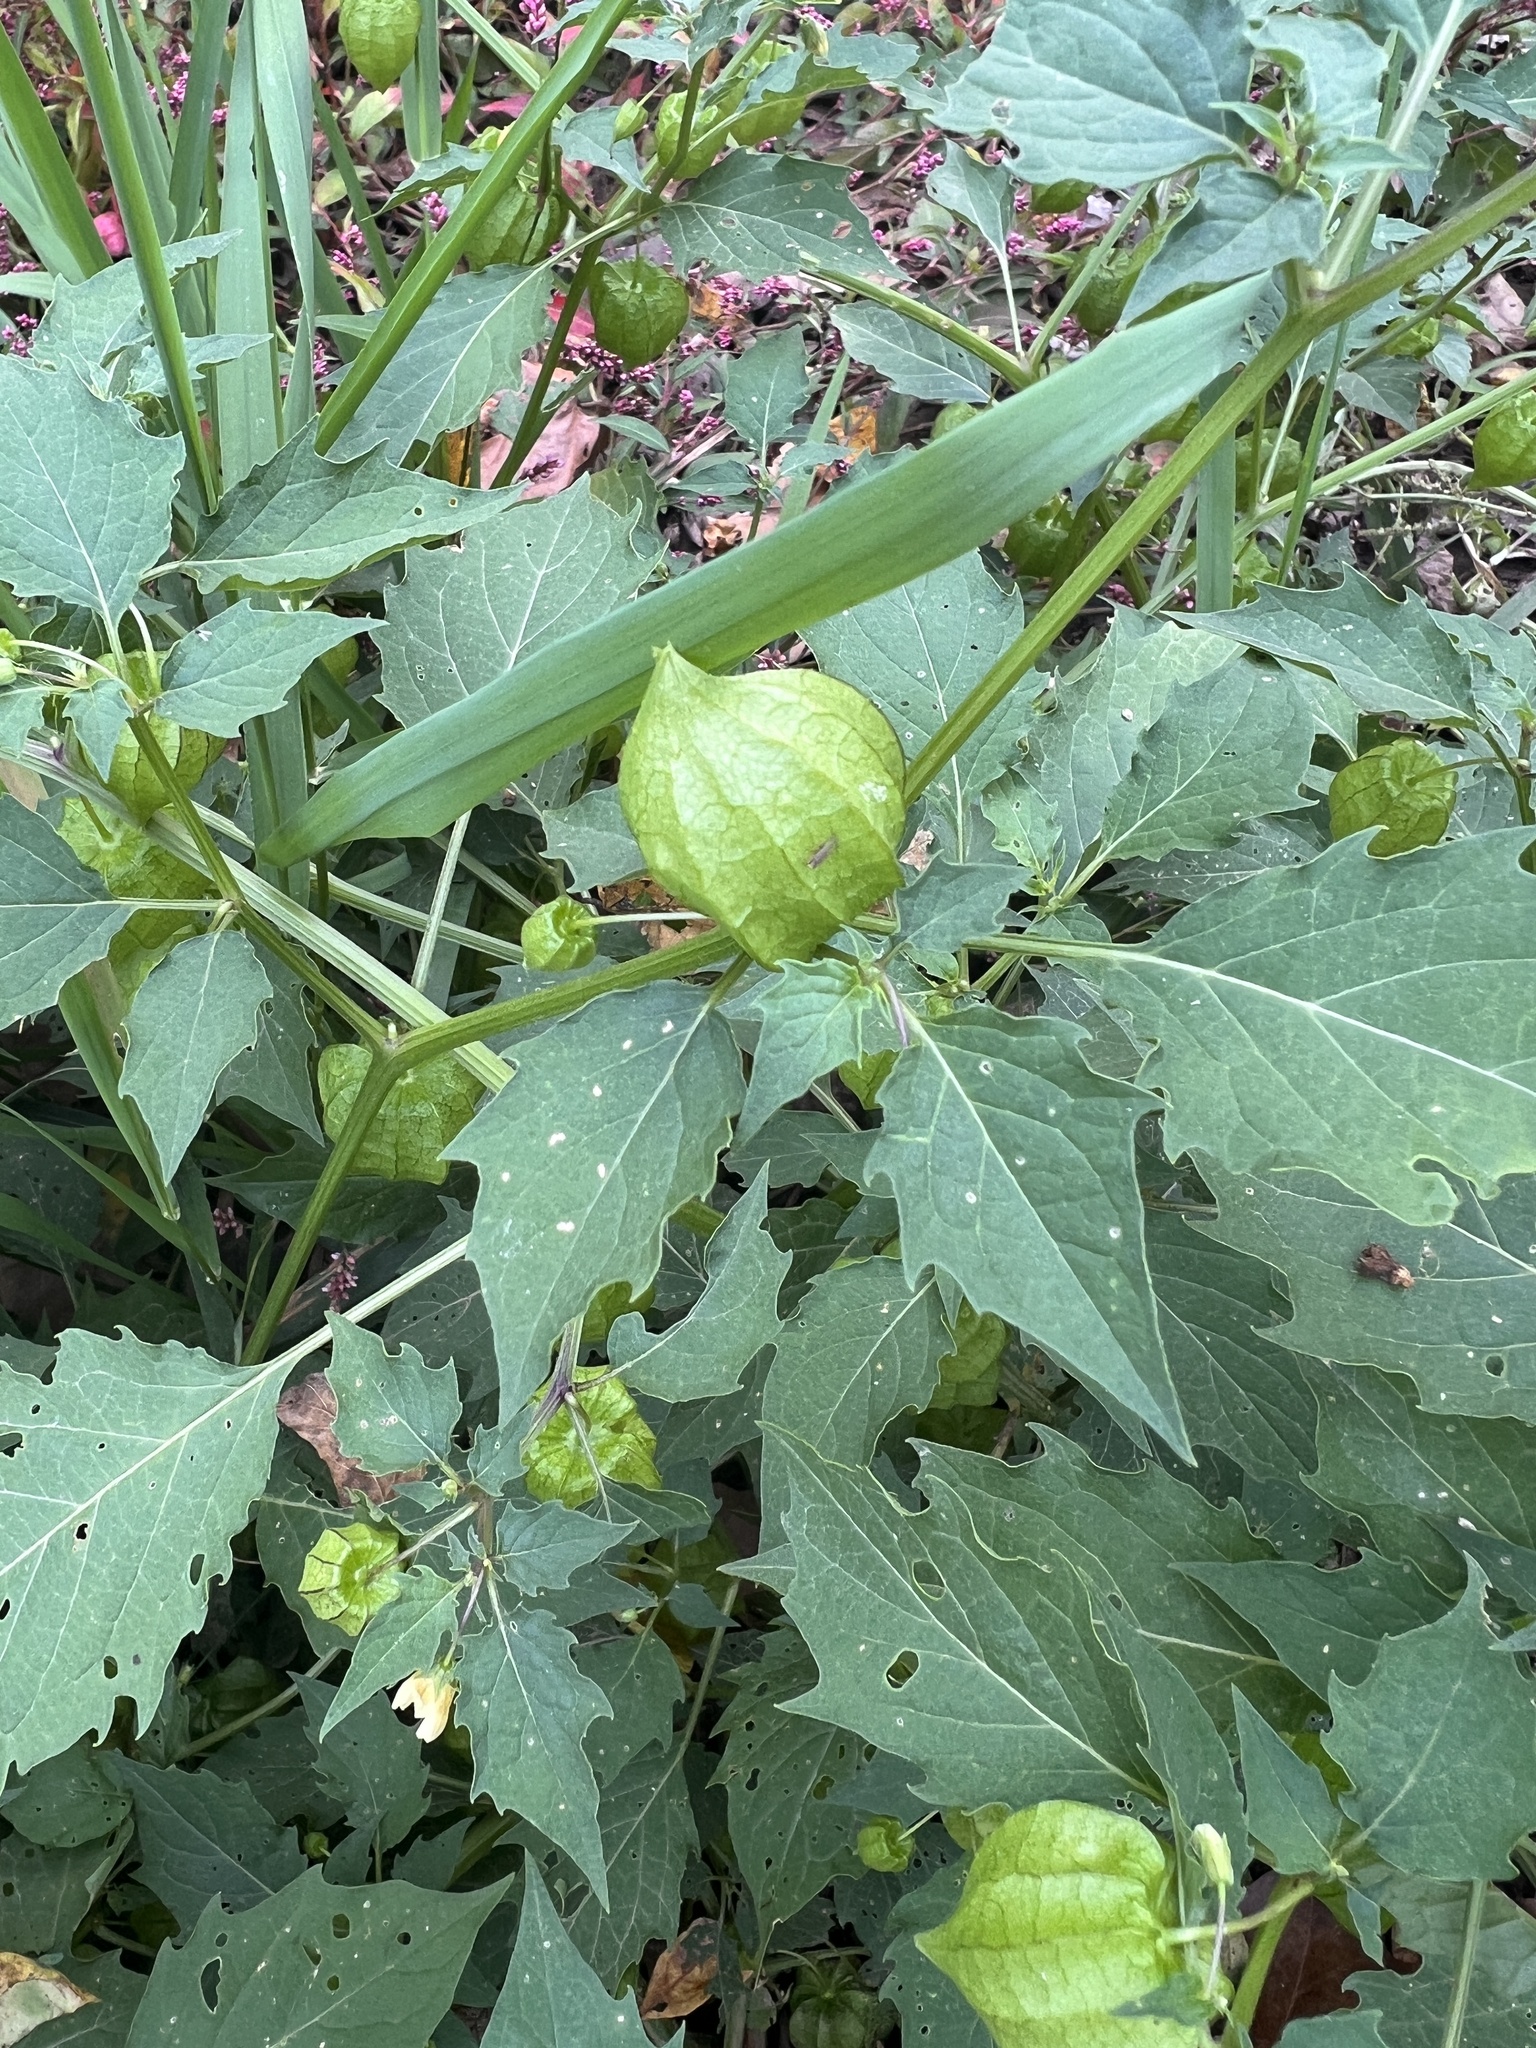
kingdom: Plantae
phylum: Tracheophyta
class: Magnoliopsida
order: Solanales
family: Solanaceae
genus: Physalis
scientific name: Physalis angulata
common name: Angular winter-cherry
